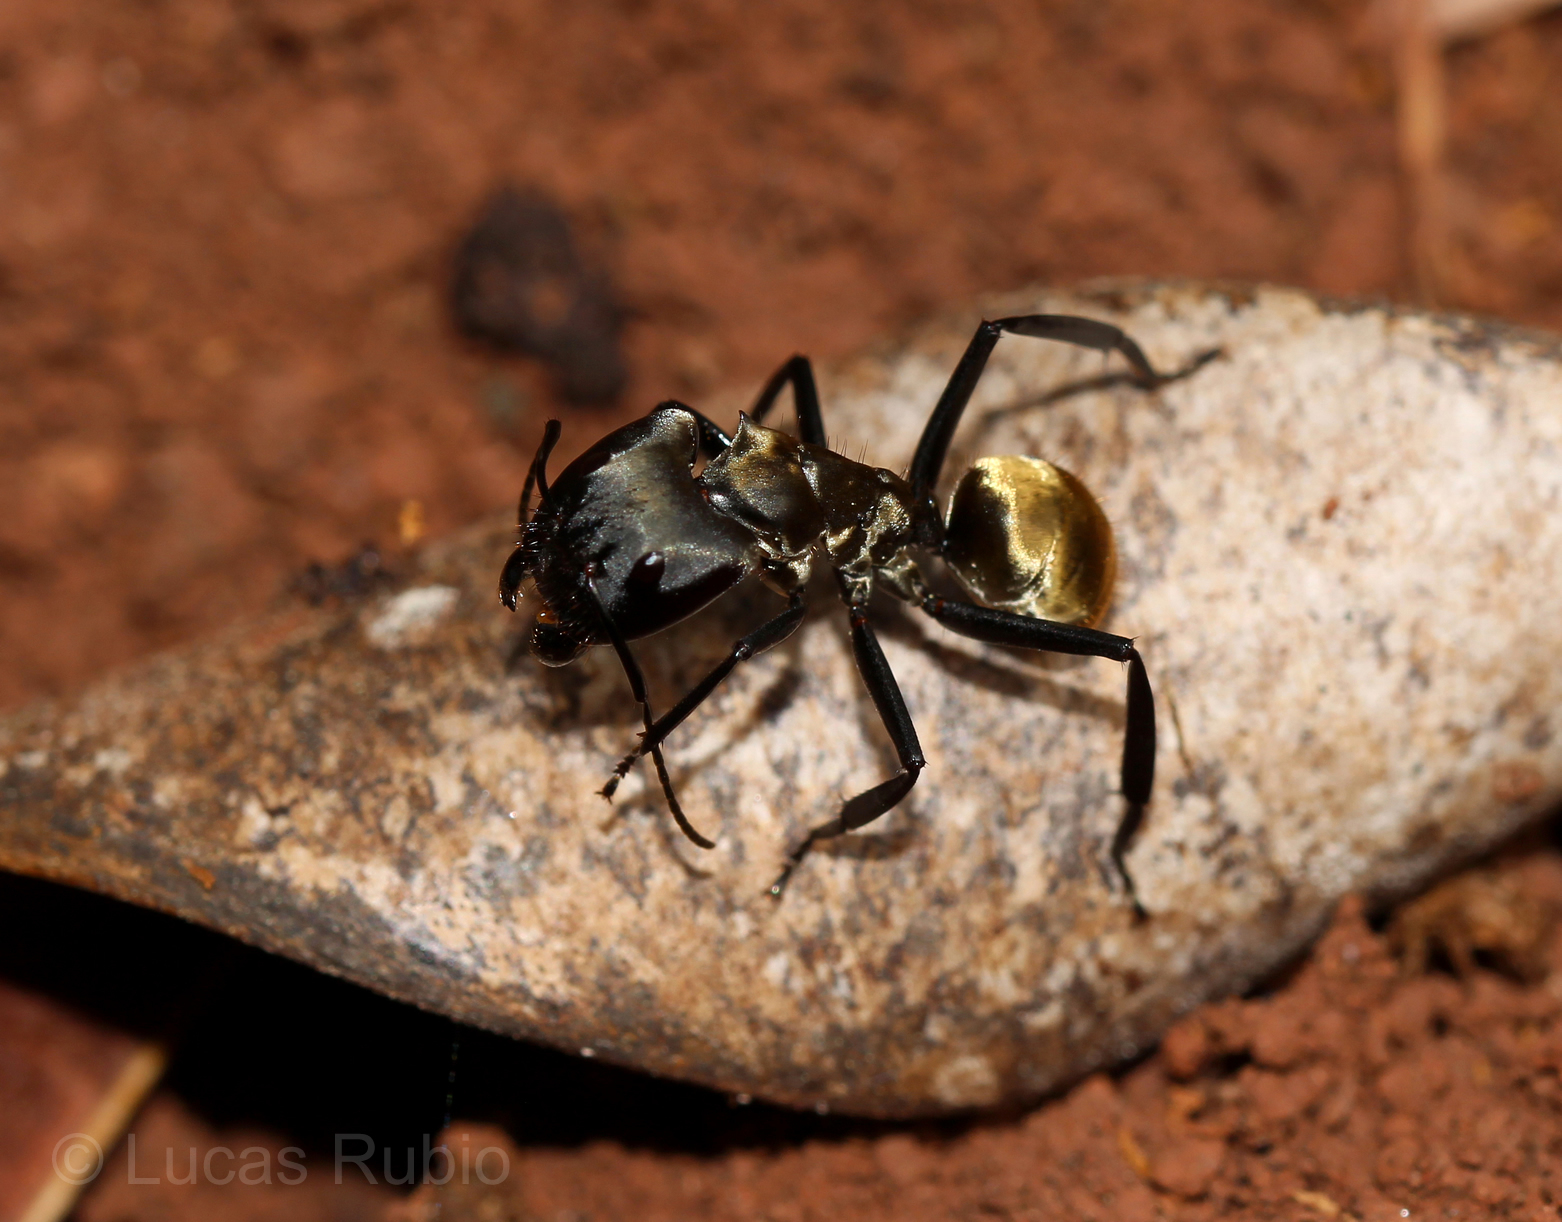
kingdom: Animalia
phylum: Arthropoda
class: Insecta
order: Hymenoptera
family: Formicidae
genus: Camponotus
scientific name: Camponotus sericeiventris
